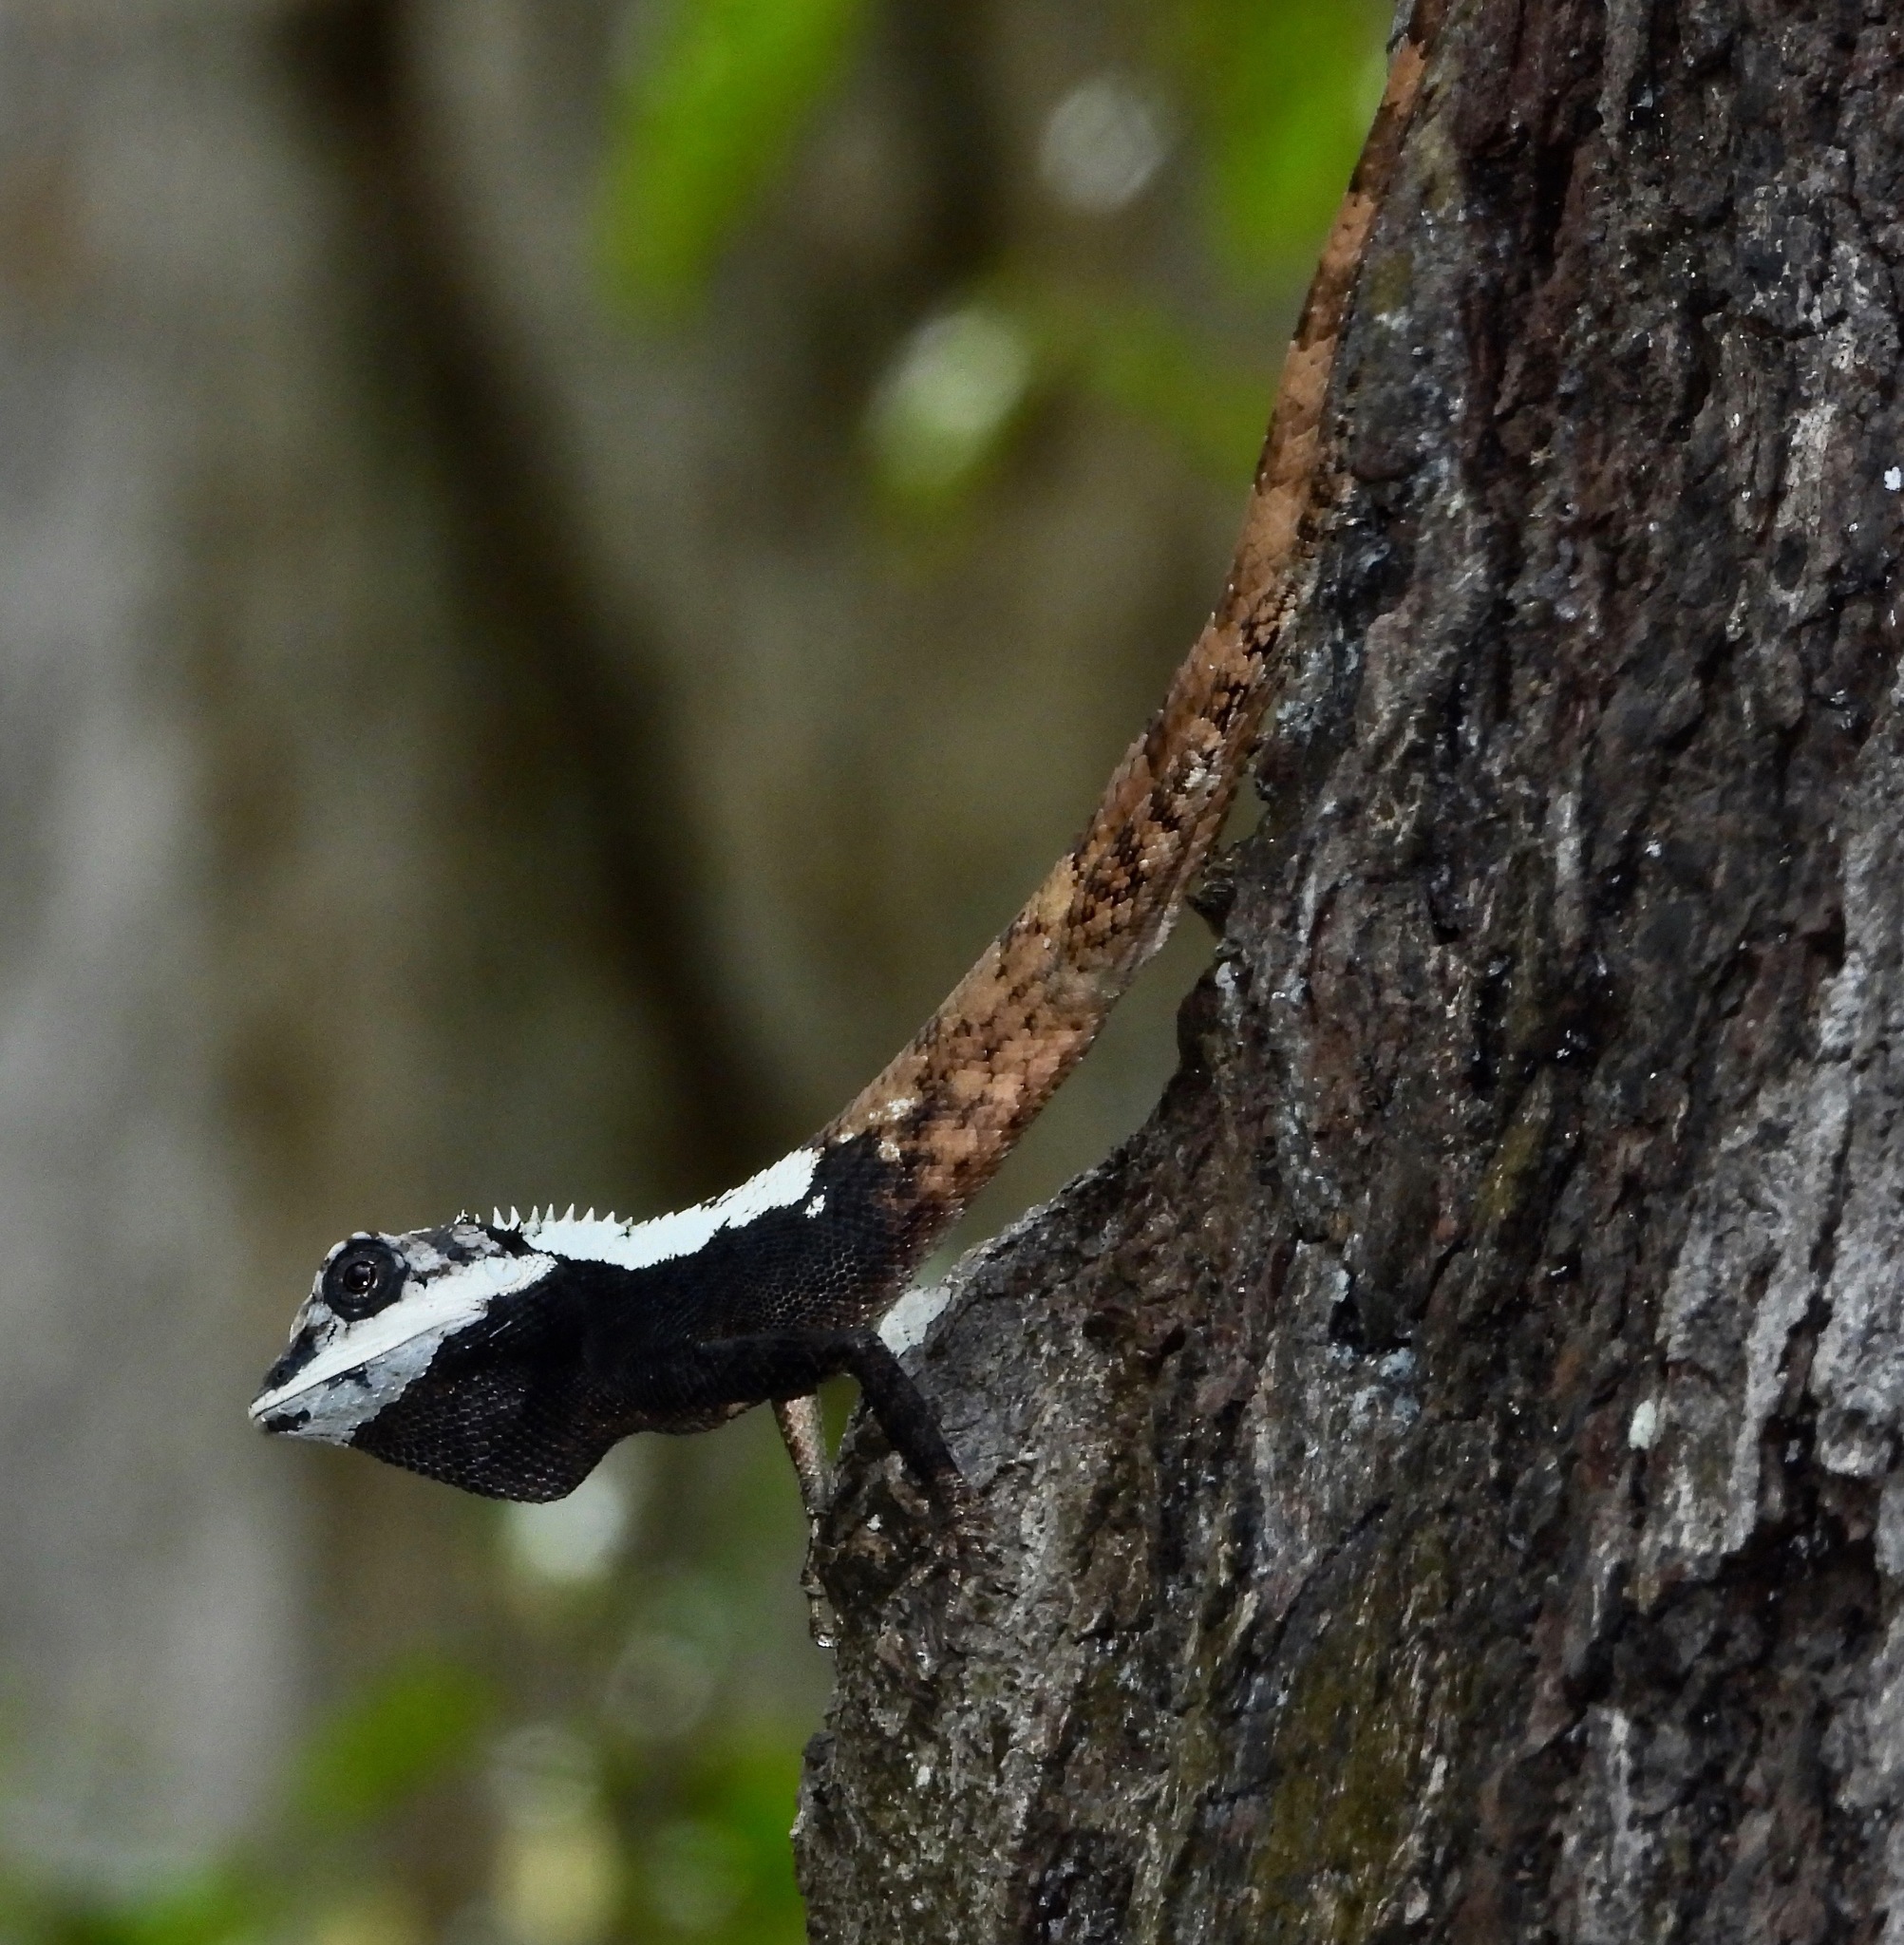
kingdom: Animalia
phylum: Chordata
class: Squamata
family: Agamidae
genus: Calotes
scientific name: Calotes ceylonensis
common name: Ceylon bloodsucker
